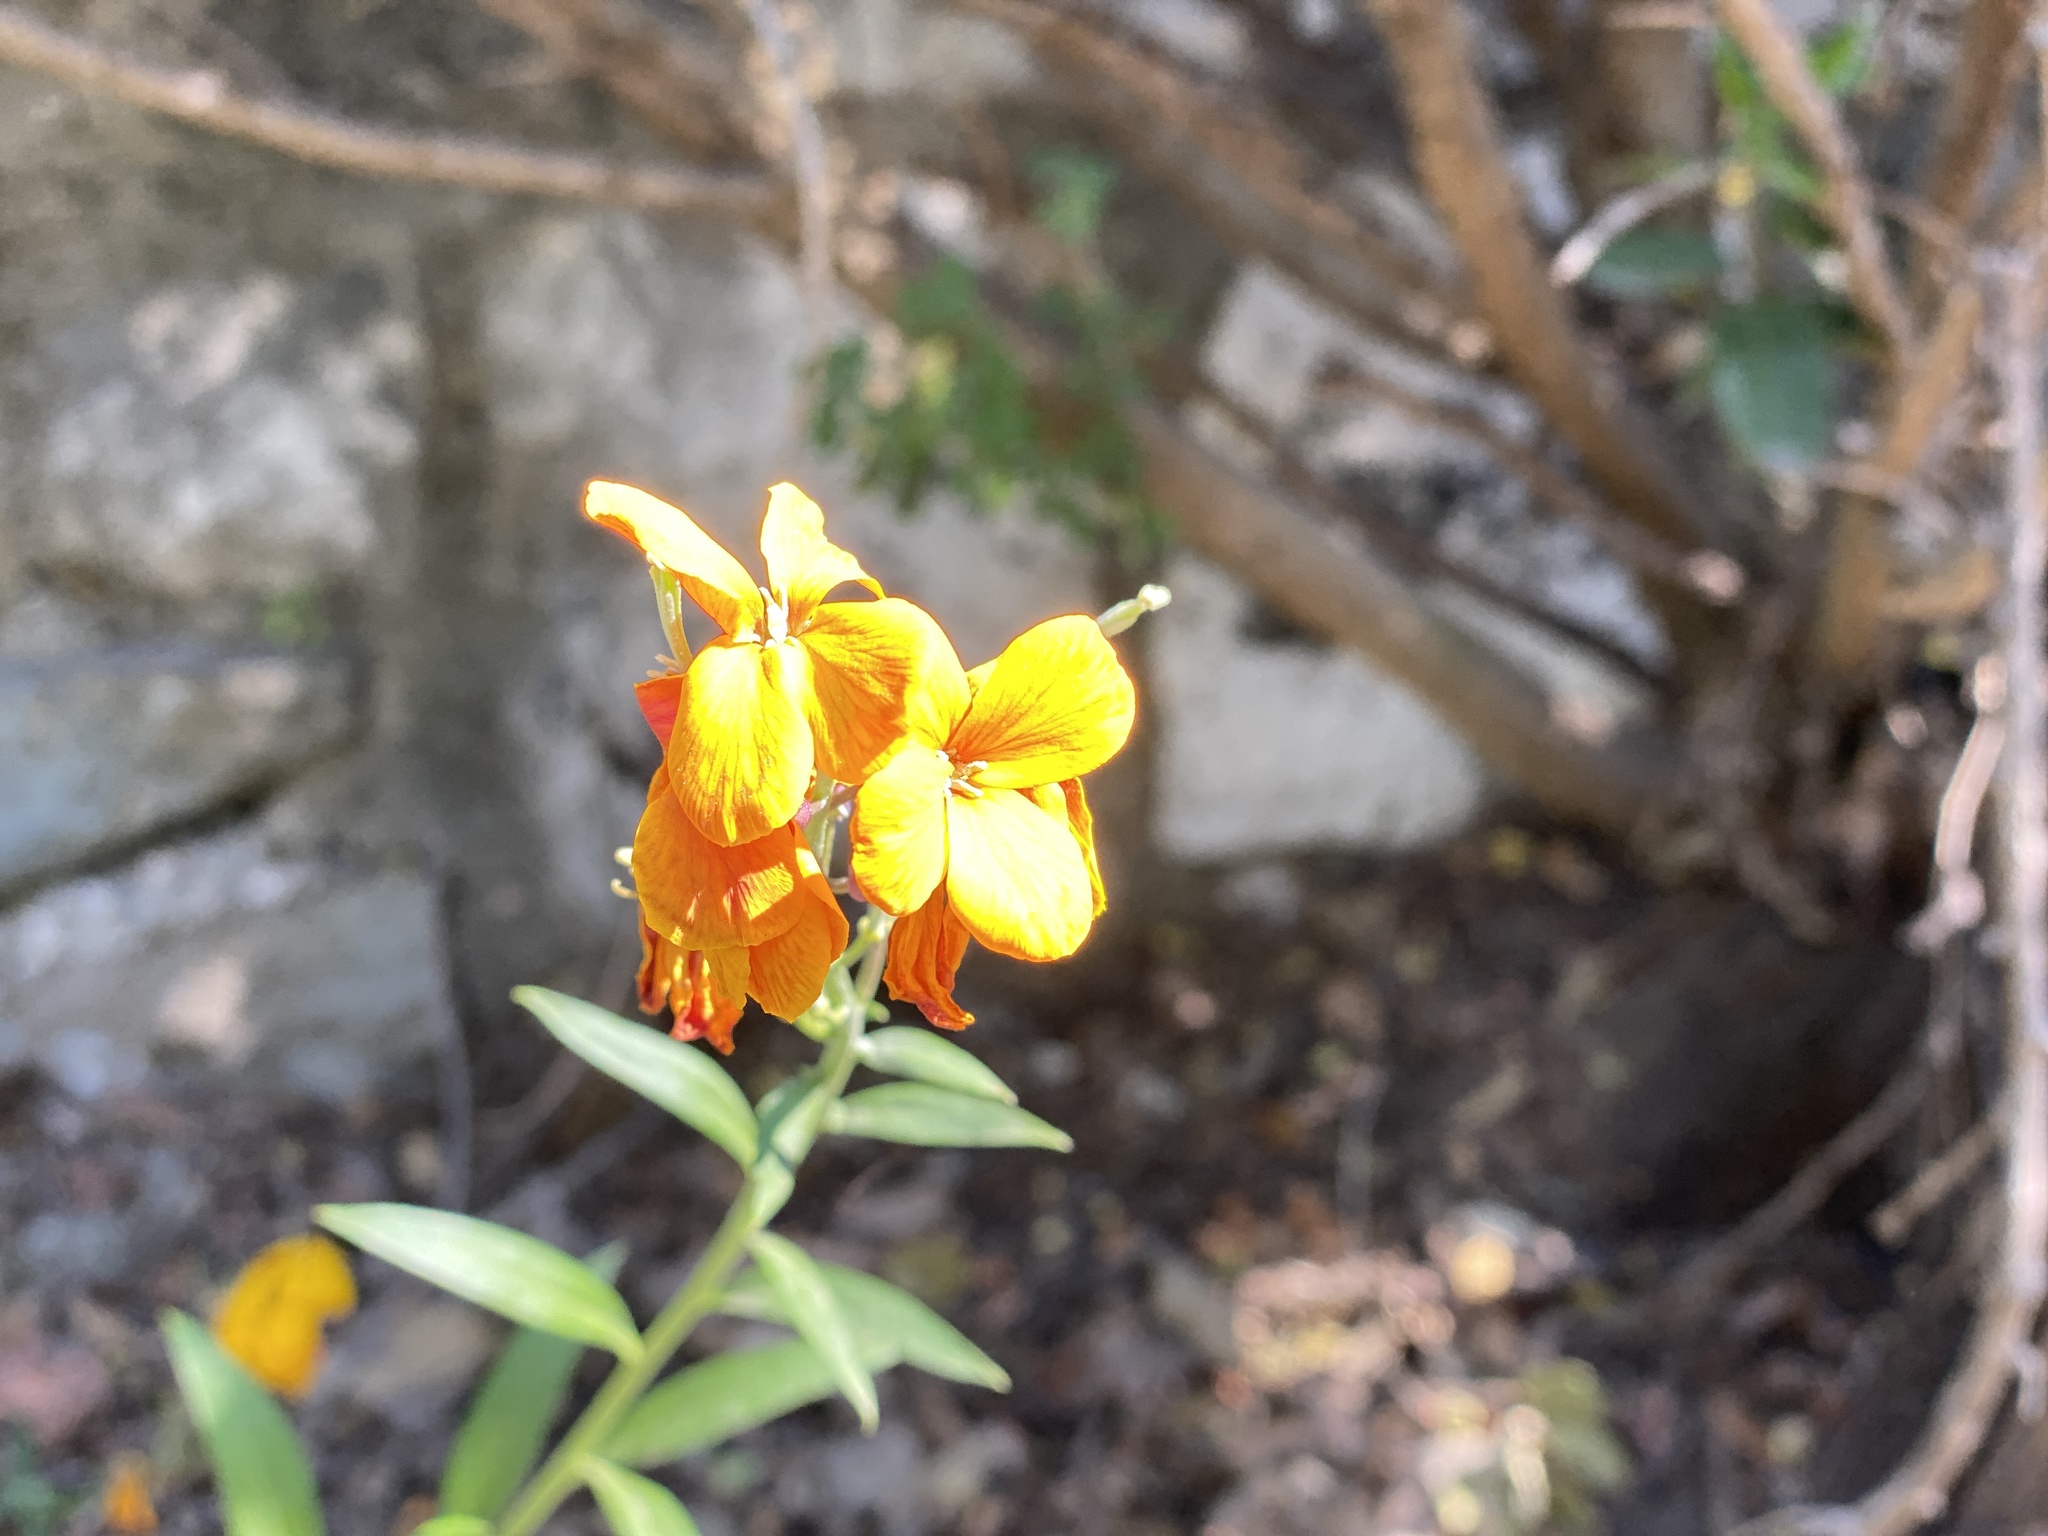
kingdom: Plantae
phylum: Tracheophyta
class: Magnoliopsida
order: Brassicales
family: Brassicaceae
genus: Erysimum
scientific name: Erysimum cheiri
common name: Wallflower
